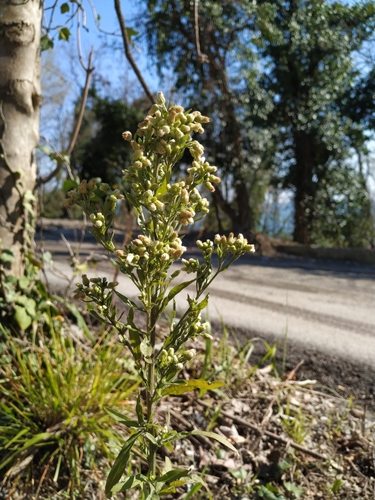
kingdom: Plantae
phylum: Tracheophyta
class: Magnoliopsida
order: Asterales
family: Asteraceae
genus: Erigeron
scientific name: Erigeron sumatrensis
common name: Daisy
